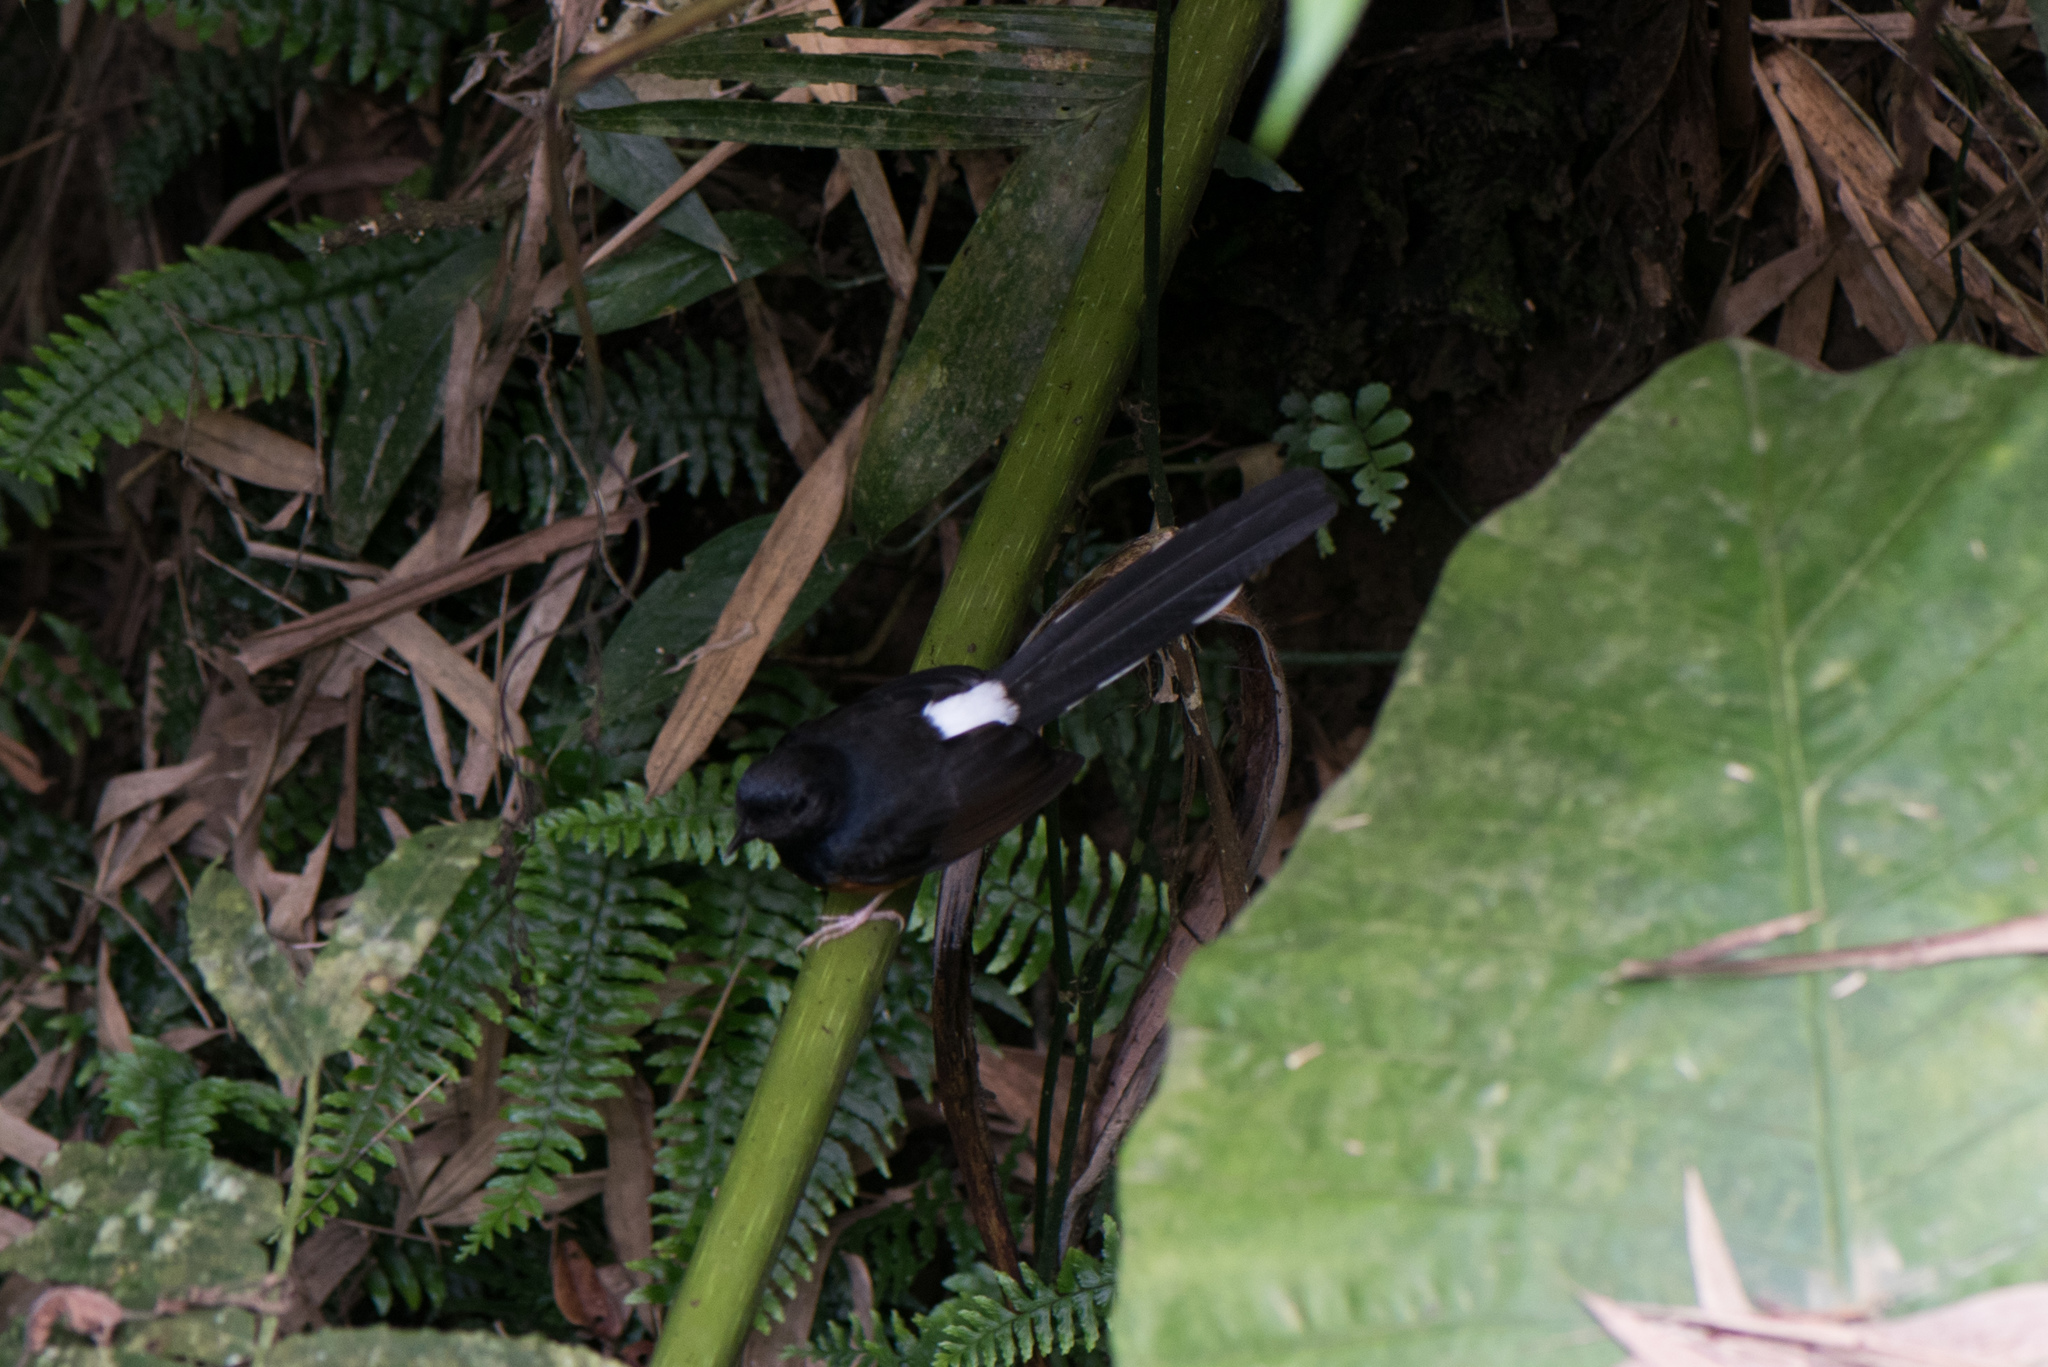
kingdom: Animalia
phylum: Chordata
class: Aves
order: Passeriformes
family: Muscicapidae
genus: Copsychus
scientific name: Copsychus malabaricus
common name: White-rumped shama
